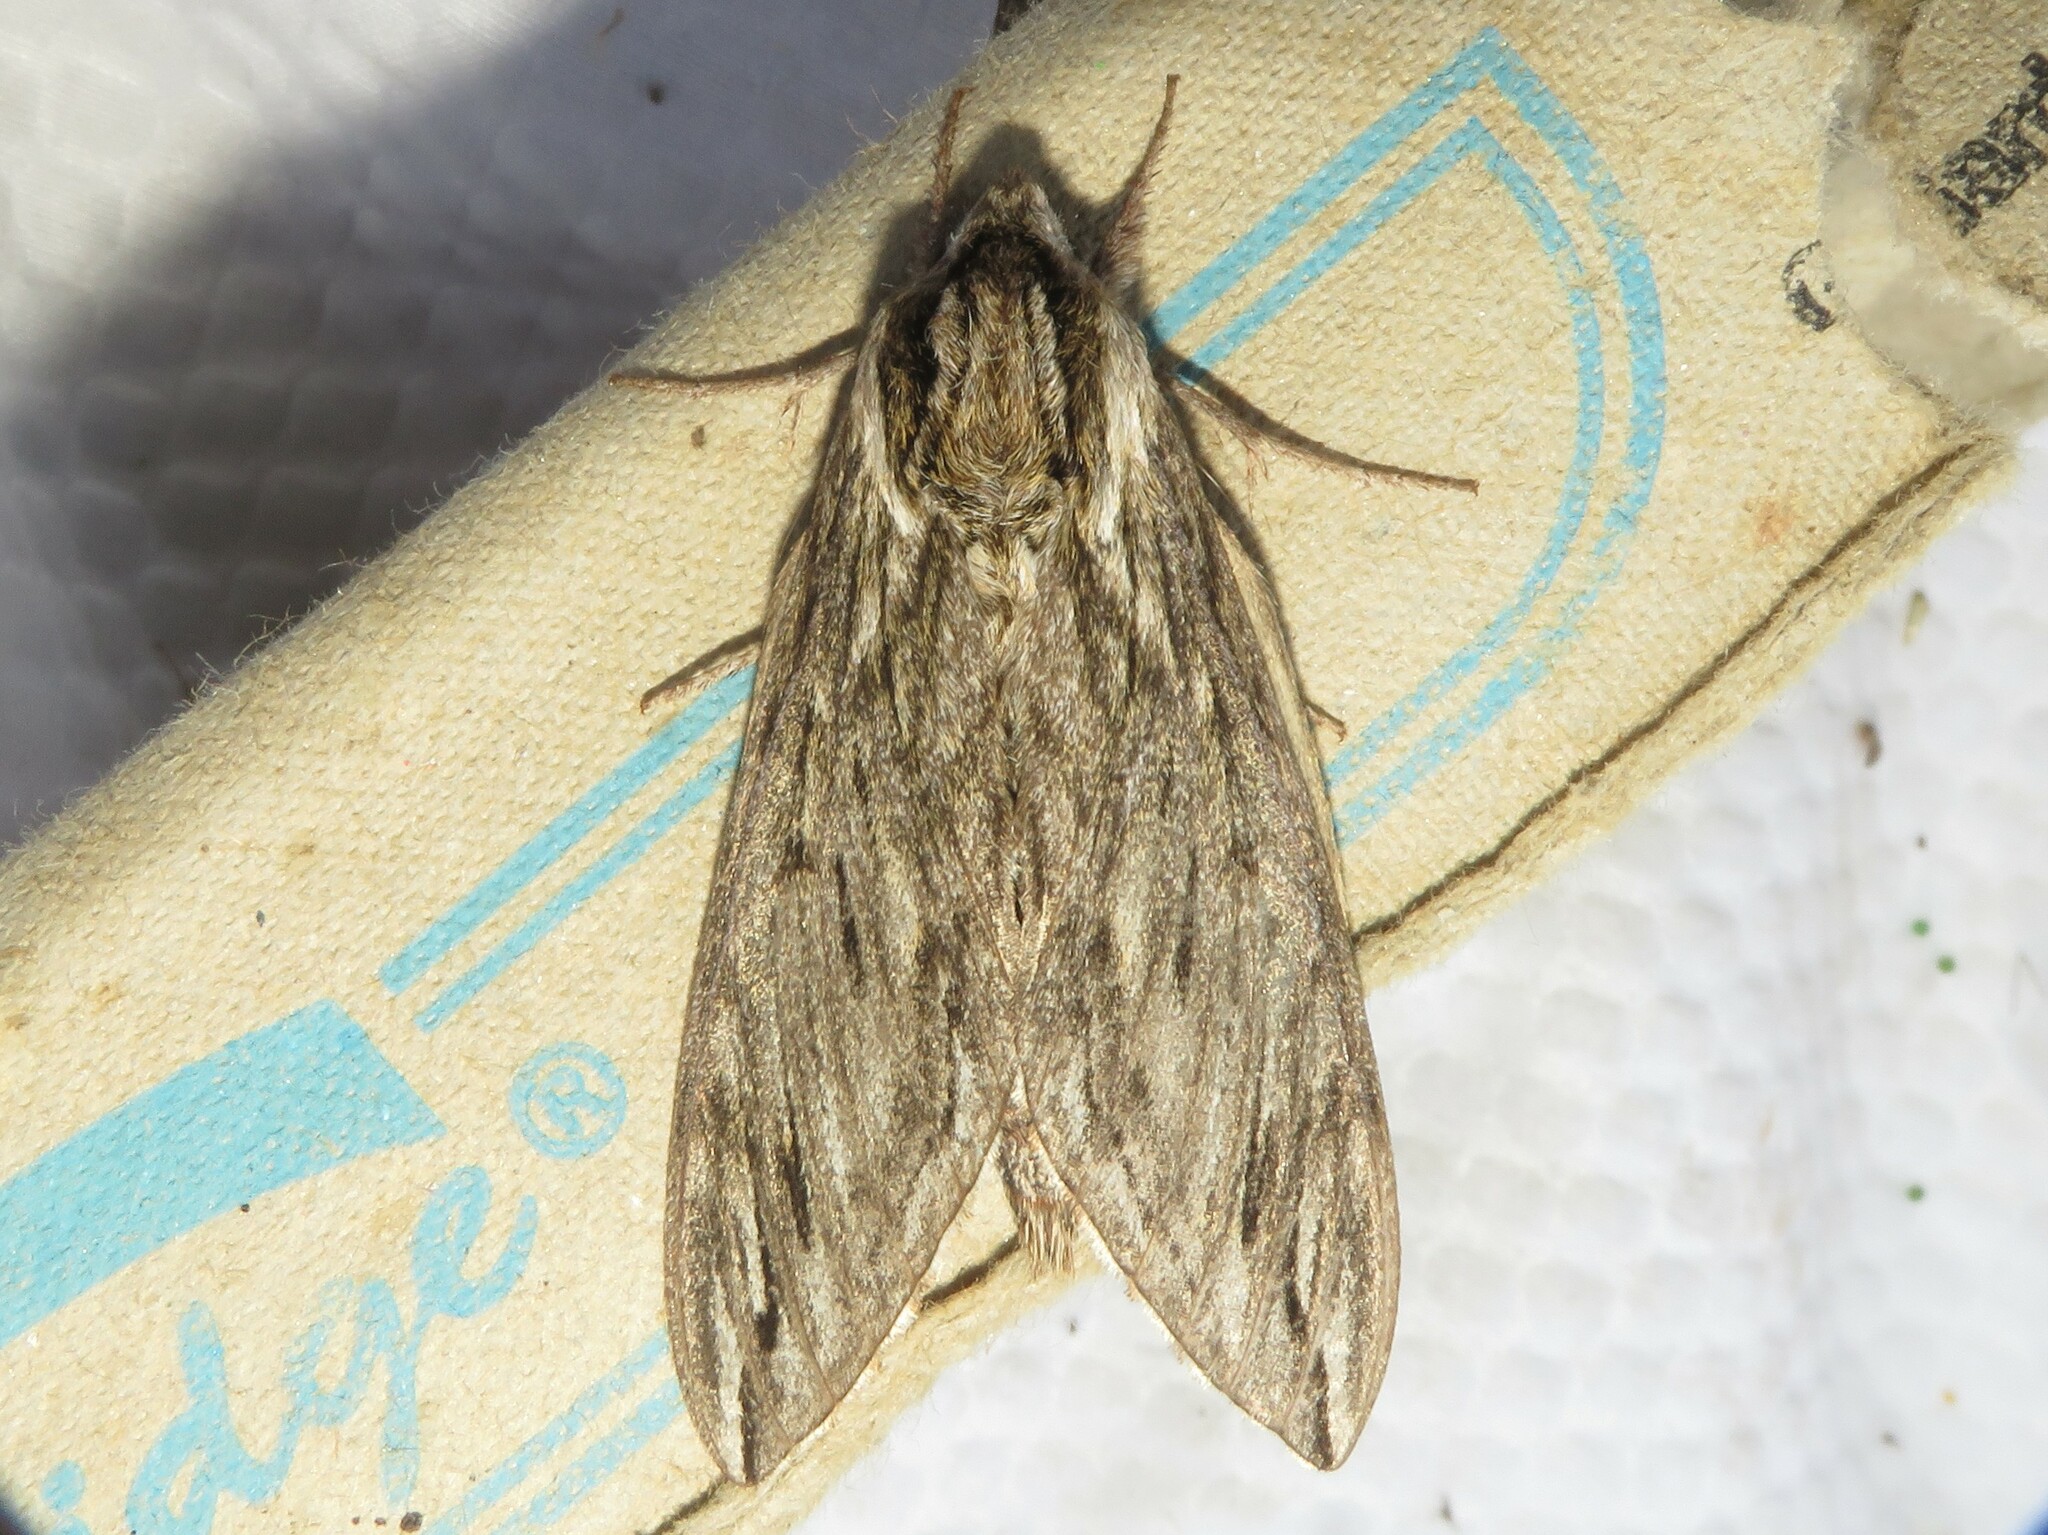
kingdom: Animalia
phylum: Arthropoda
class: Insecta
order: Lepidoptera
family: Sphingidae
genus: Sphinx
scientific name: Sphinx canadensis
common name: Canadian sphinx
